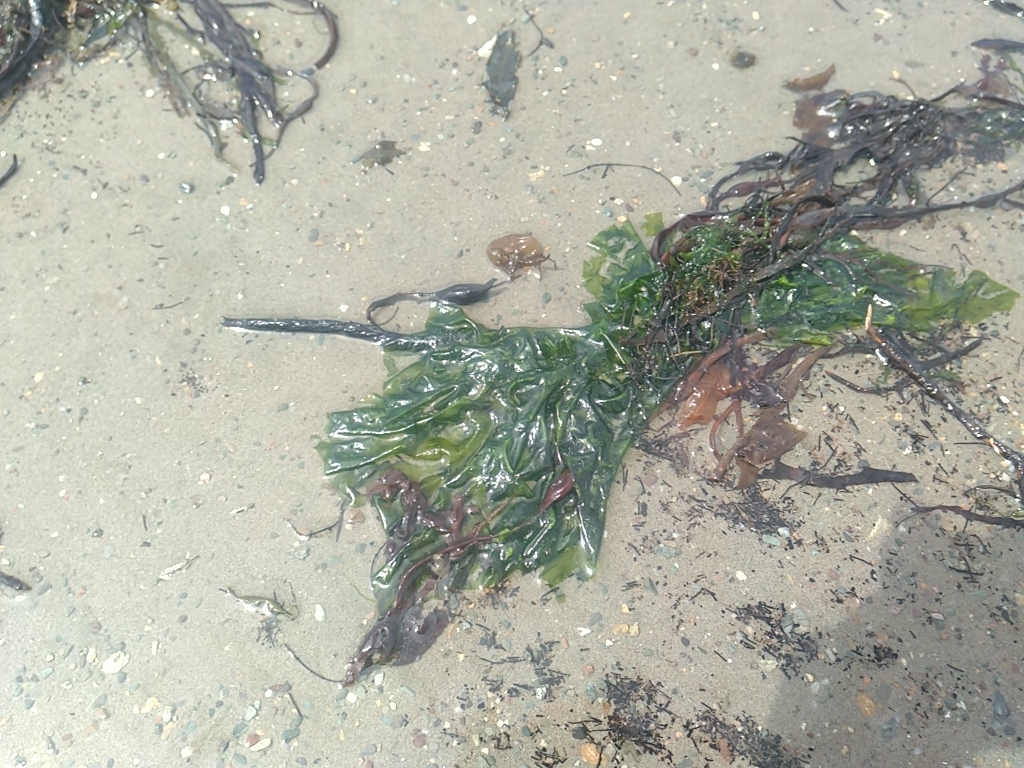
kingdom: Plantae
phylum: Chlorophyta
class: Ulvophyceae
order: Ulvales
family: Ulvaceae
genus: Ulva
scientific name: Ulva lactuca
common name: Sea lettuce
